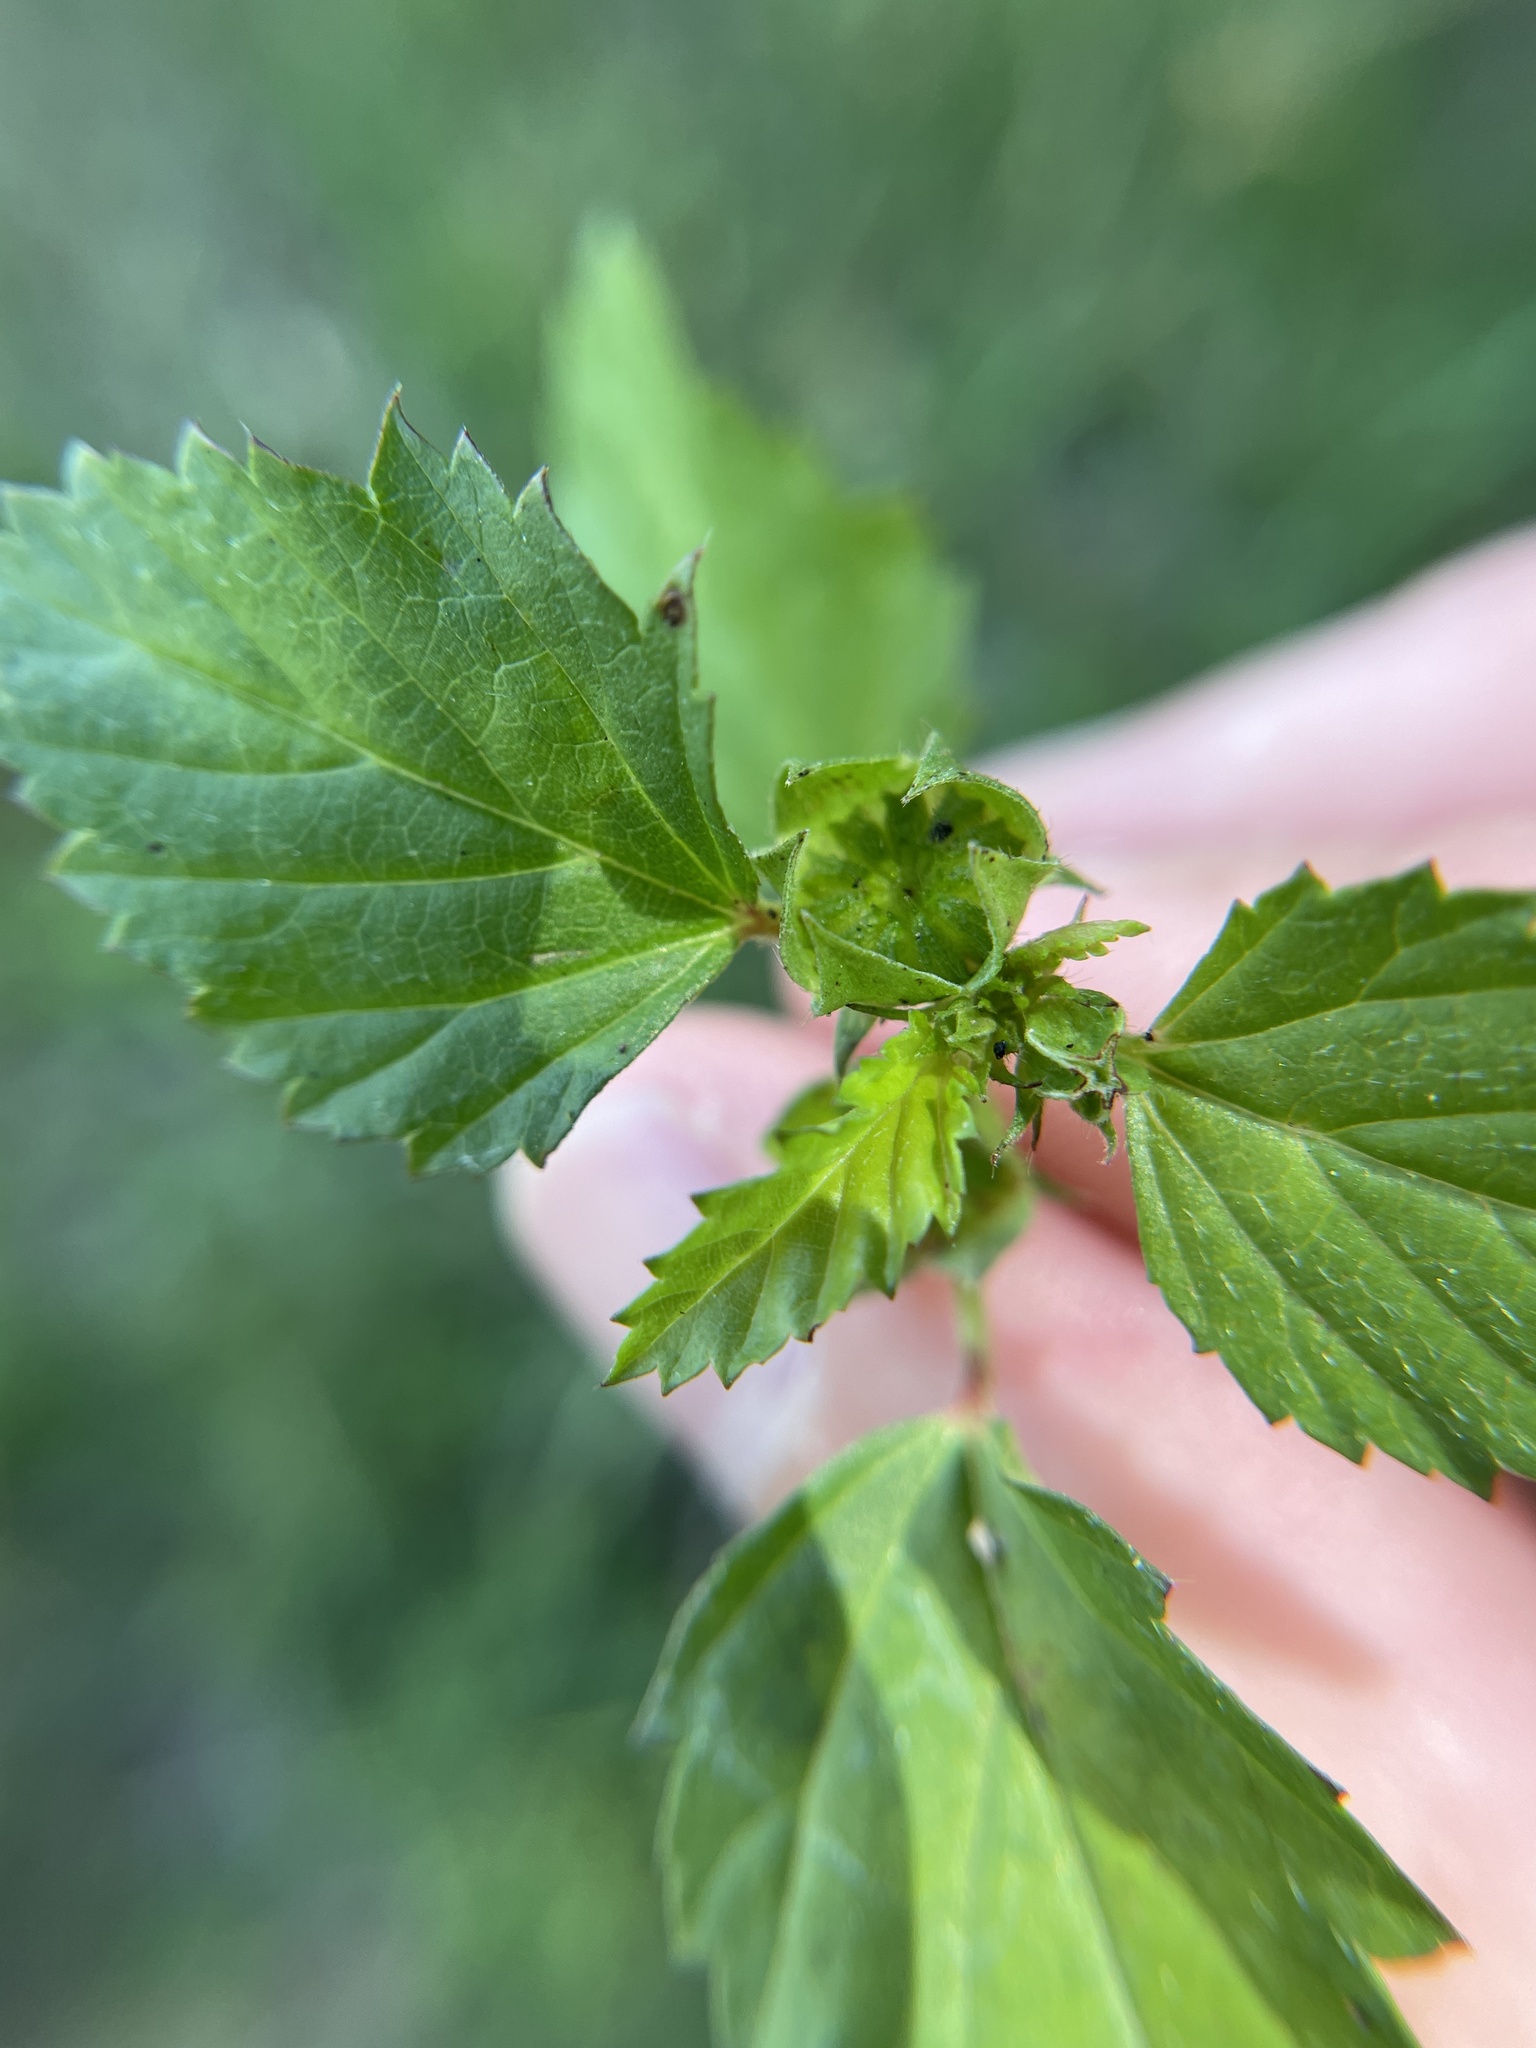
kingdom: Plantae
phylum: Tracheophyta
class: Magnoliopsida
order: Malvales
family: Malvaceae
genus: Malvastrum
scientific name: Malvastrum coromandelianum
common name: Threelobe false mallow
